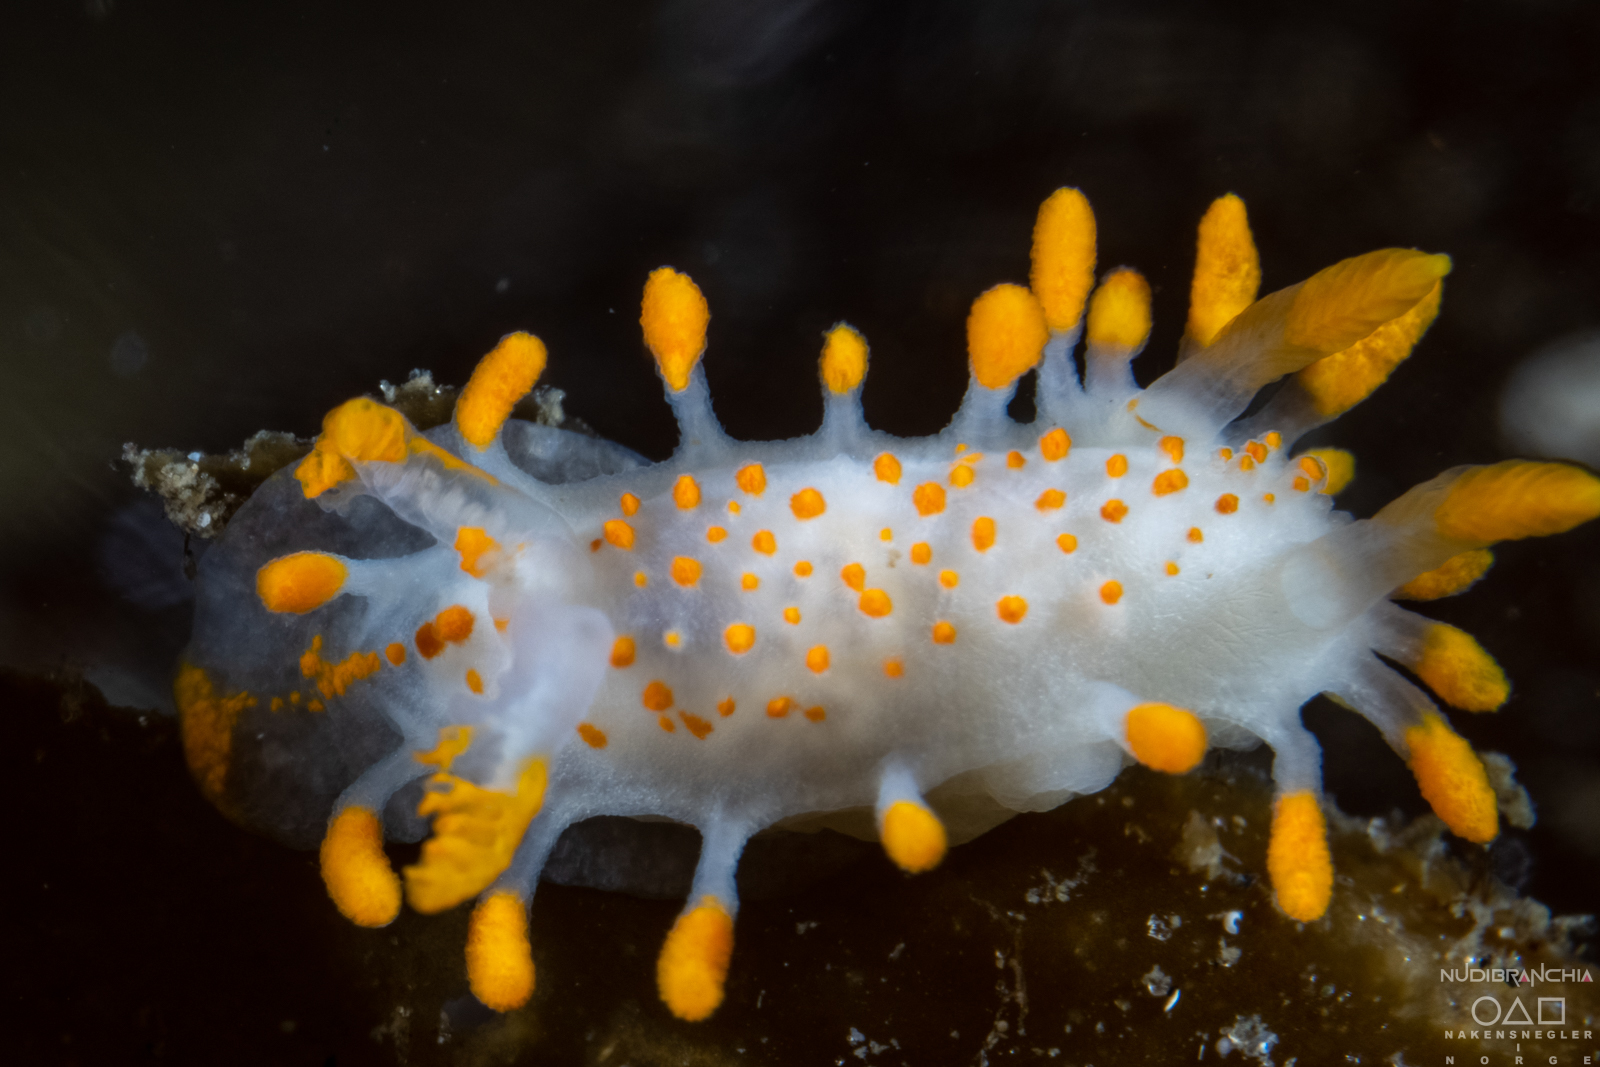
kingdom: Animalia
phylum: Mollusca
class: Gastropoda
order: Nudibranchia
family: Polyceridae
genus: Limacia
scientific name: Limacia clavigera
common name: Orange-clubbed sea slug
